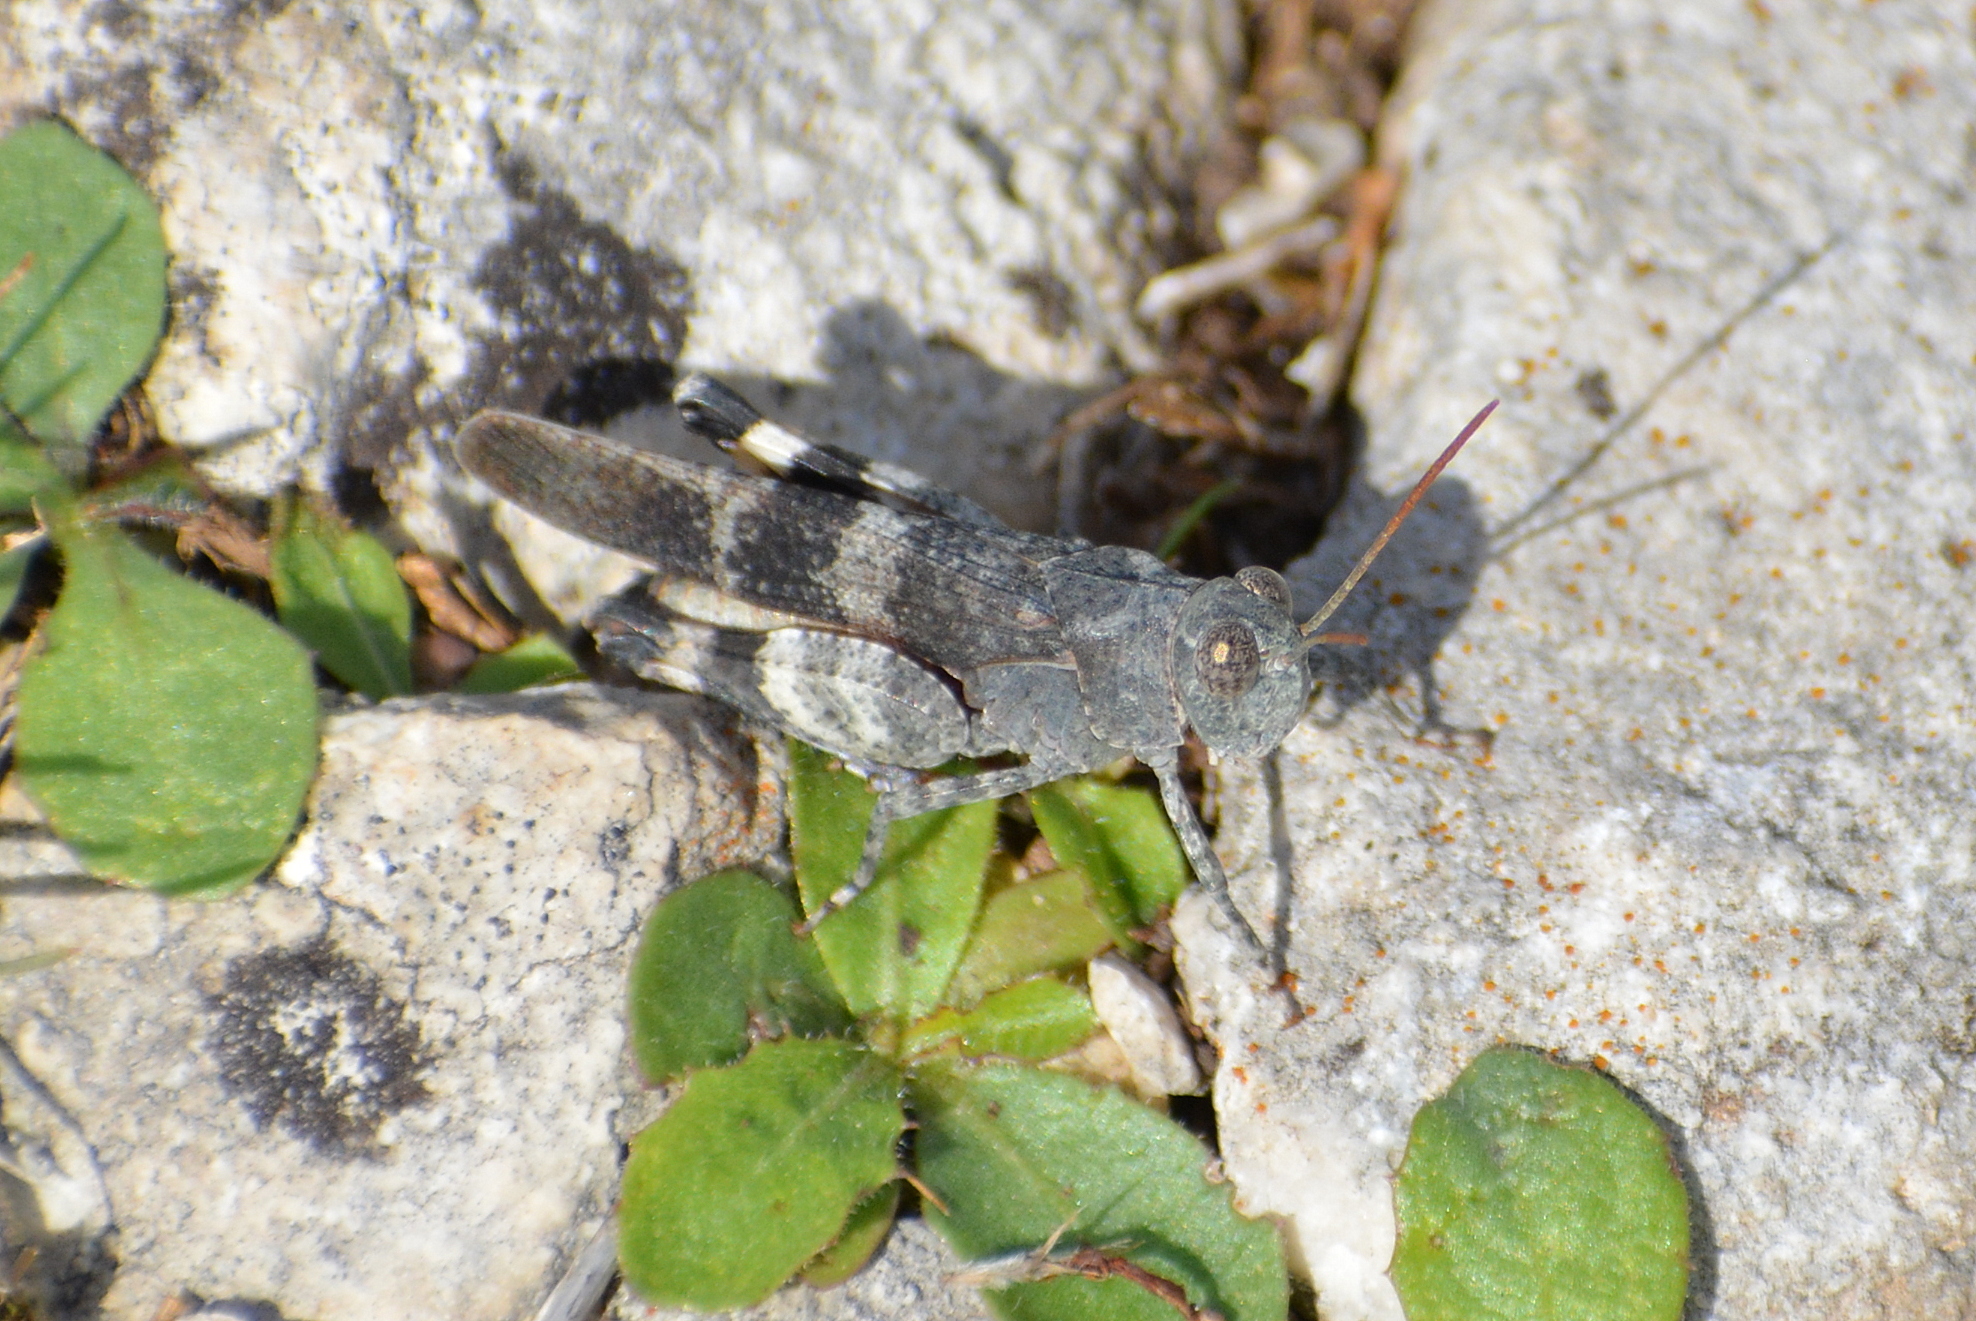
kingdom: Animalia
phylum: Arthropoda
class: Insecta
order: Orthoptera
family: Acrididae
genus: Oedipoda
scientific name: Oedipoda germanica
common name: Red band-winged grasshopper
